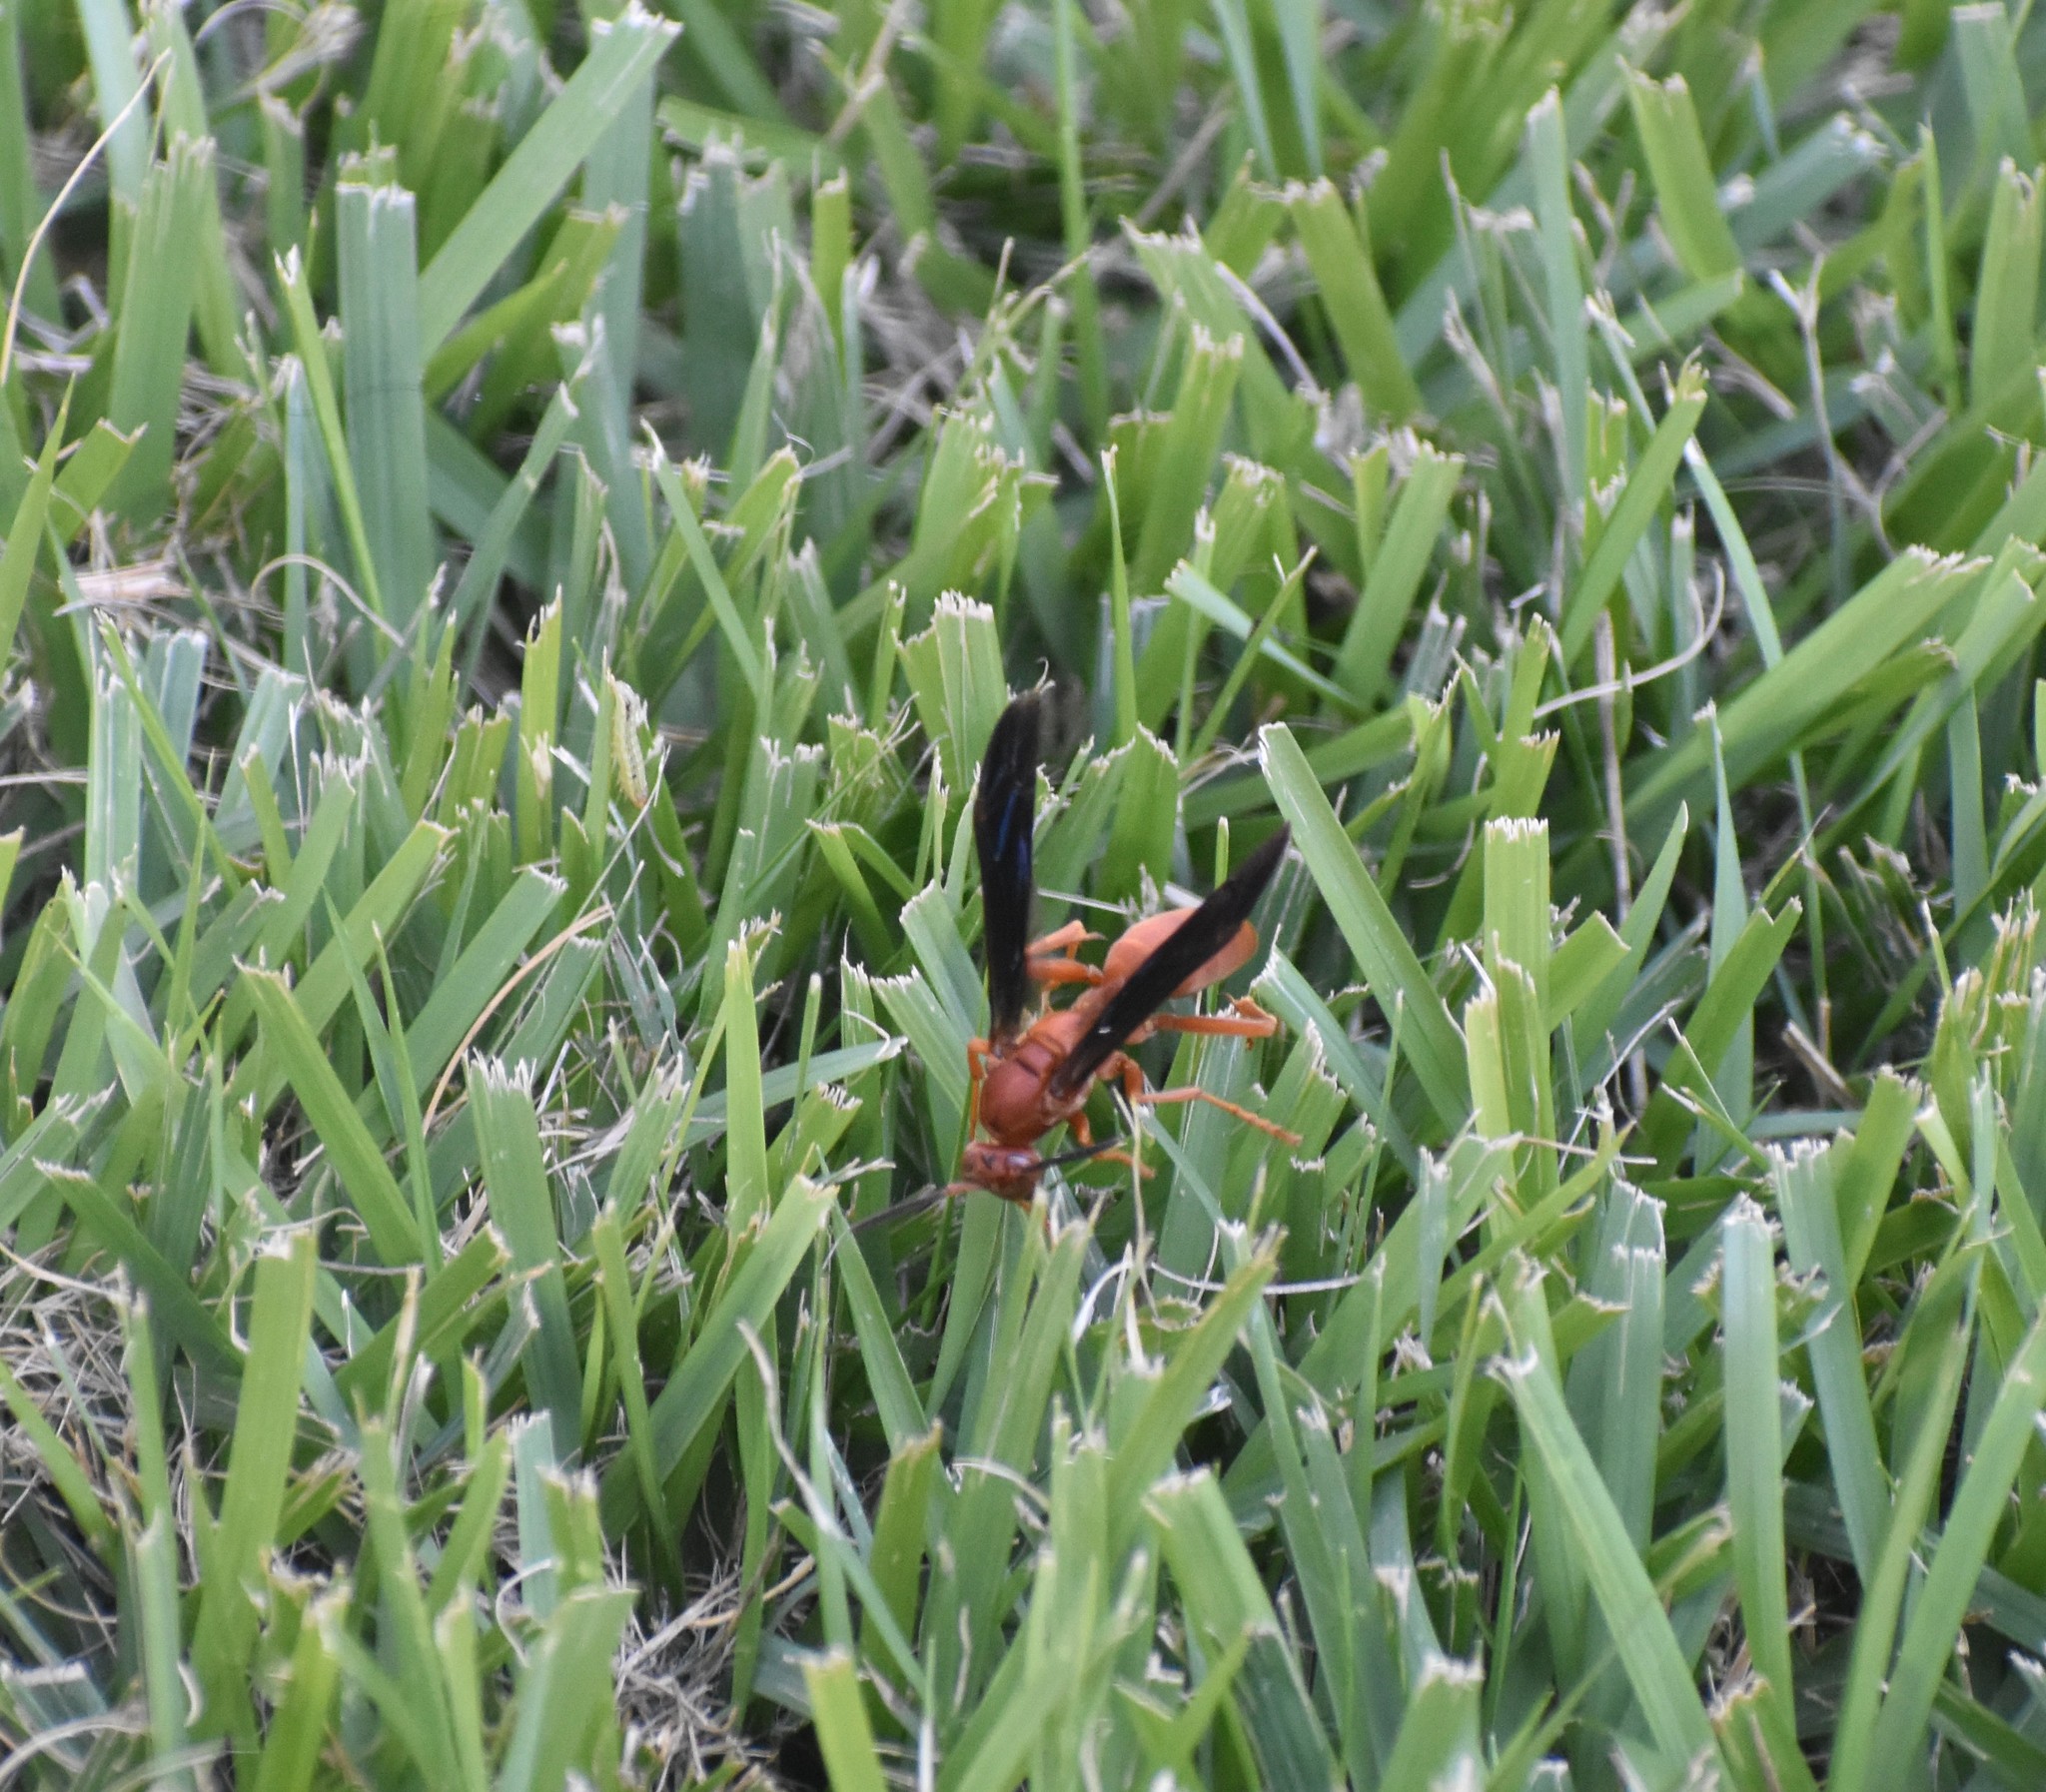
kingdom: Animalia
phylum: Arthropoda
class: Insecta
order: Hymenoptera
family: Eumenidae
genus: Polistes
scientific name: Polistes carolina
